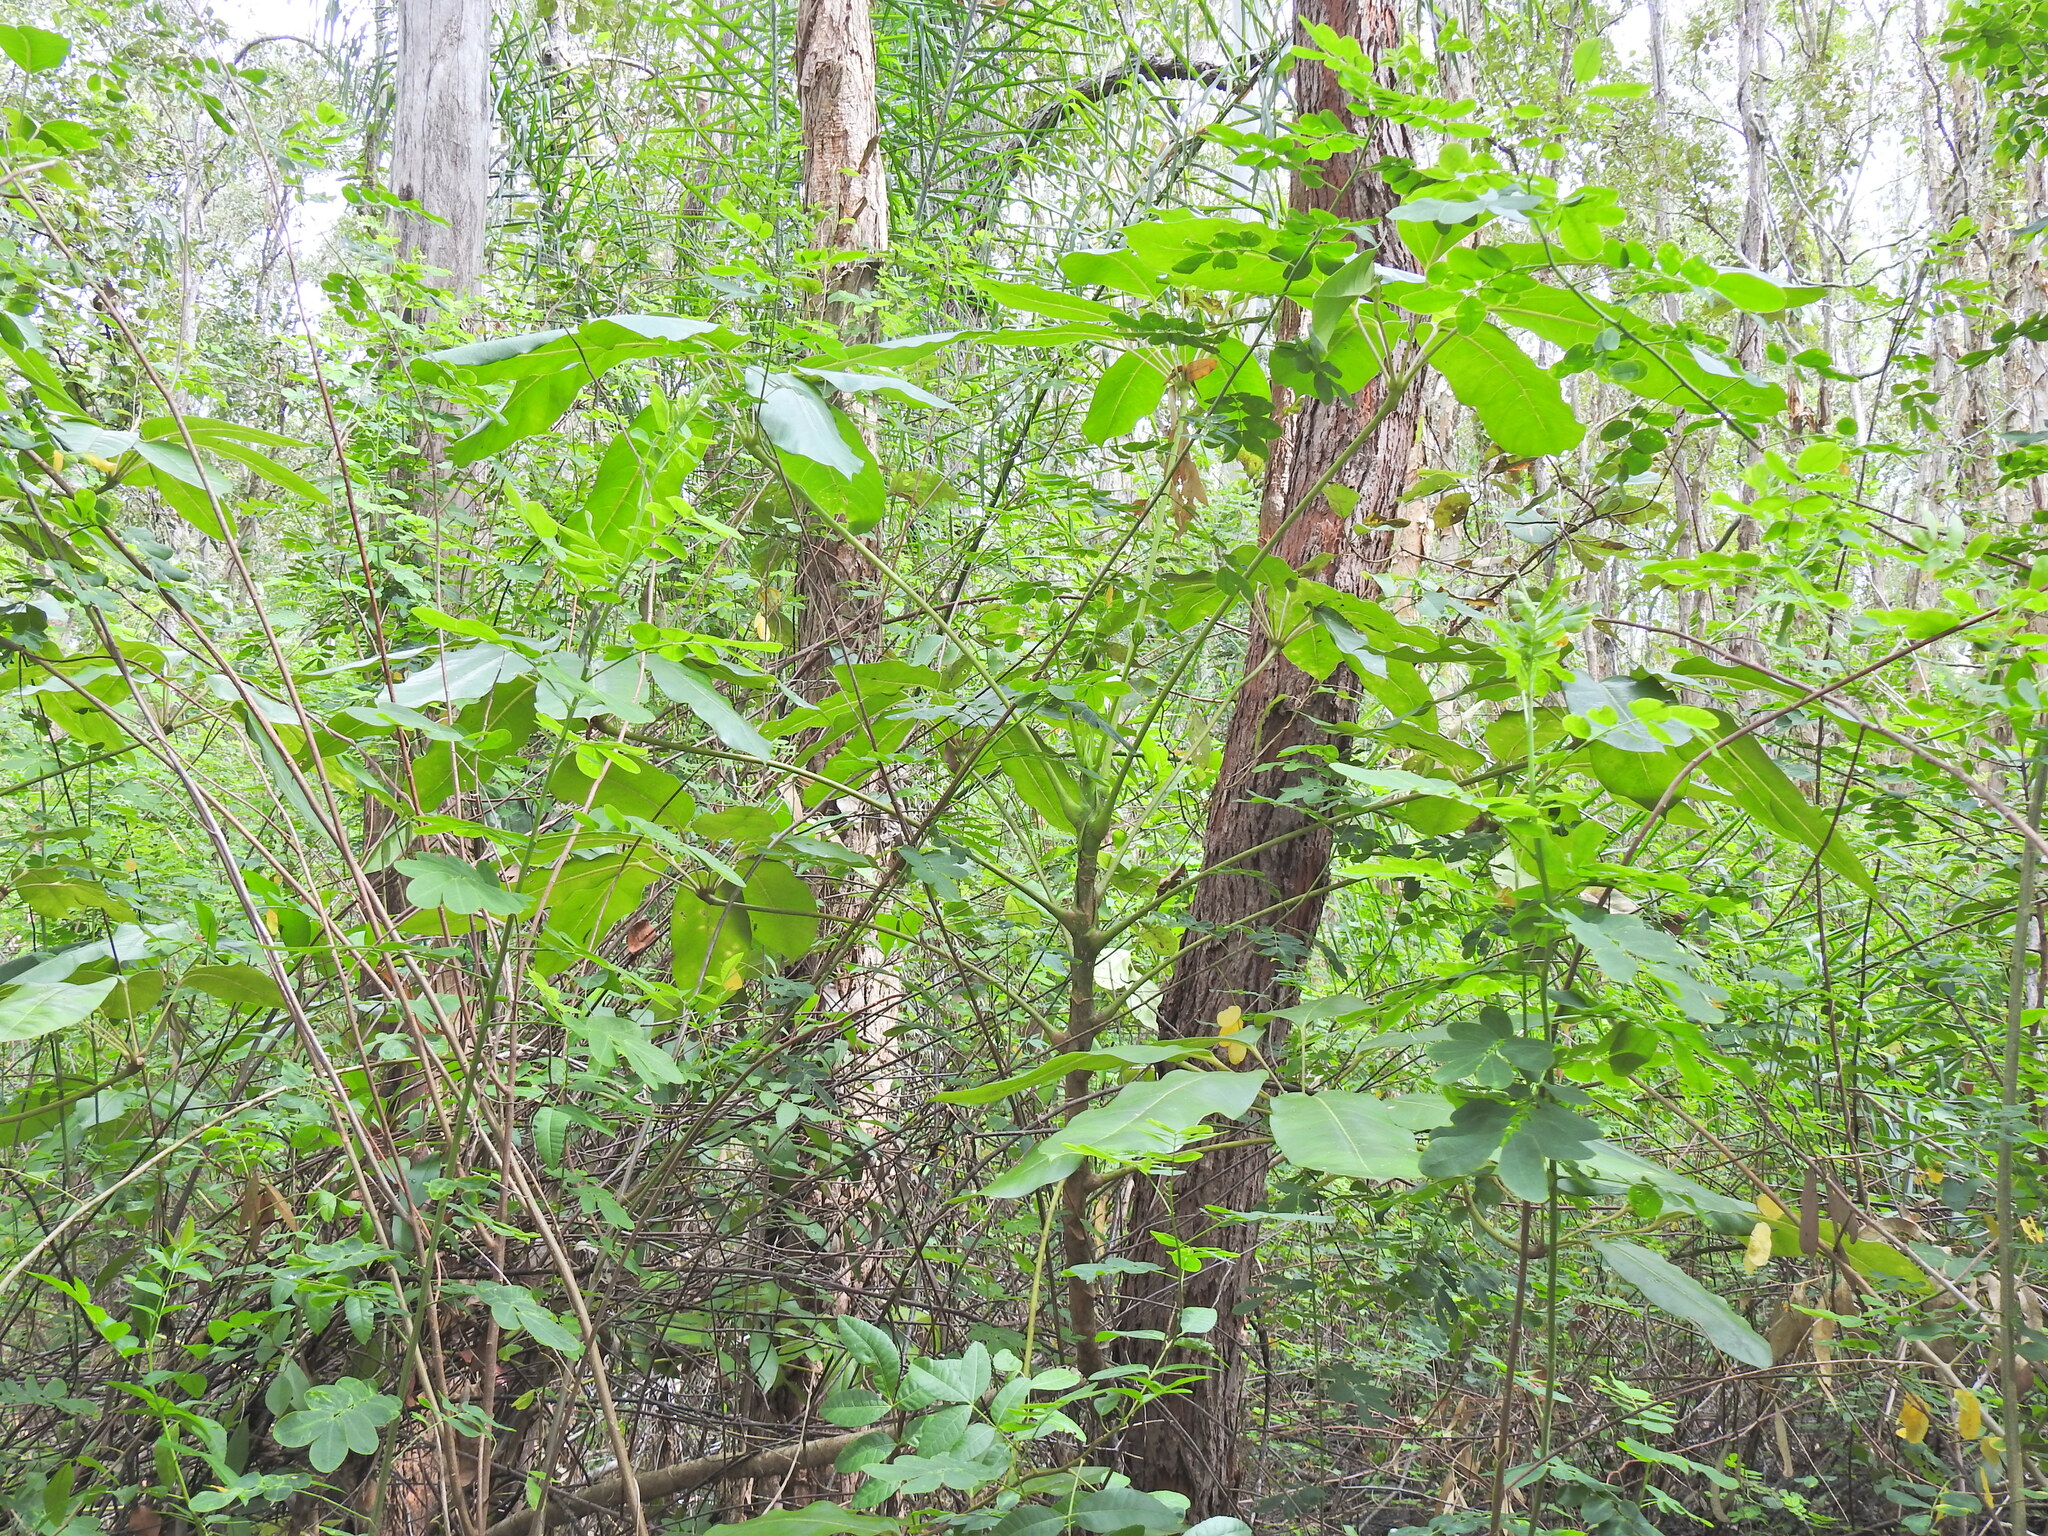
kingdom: Plantae
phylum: Tracheophyta
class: Magnoliopsida
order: Apiales
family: Araliaceae
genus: Heptapleurum
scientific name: Heptapleurum actinophyllum
